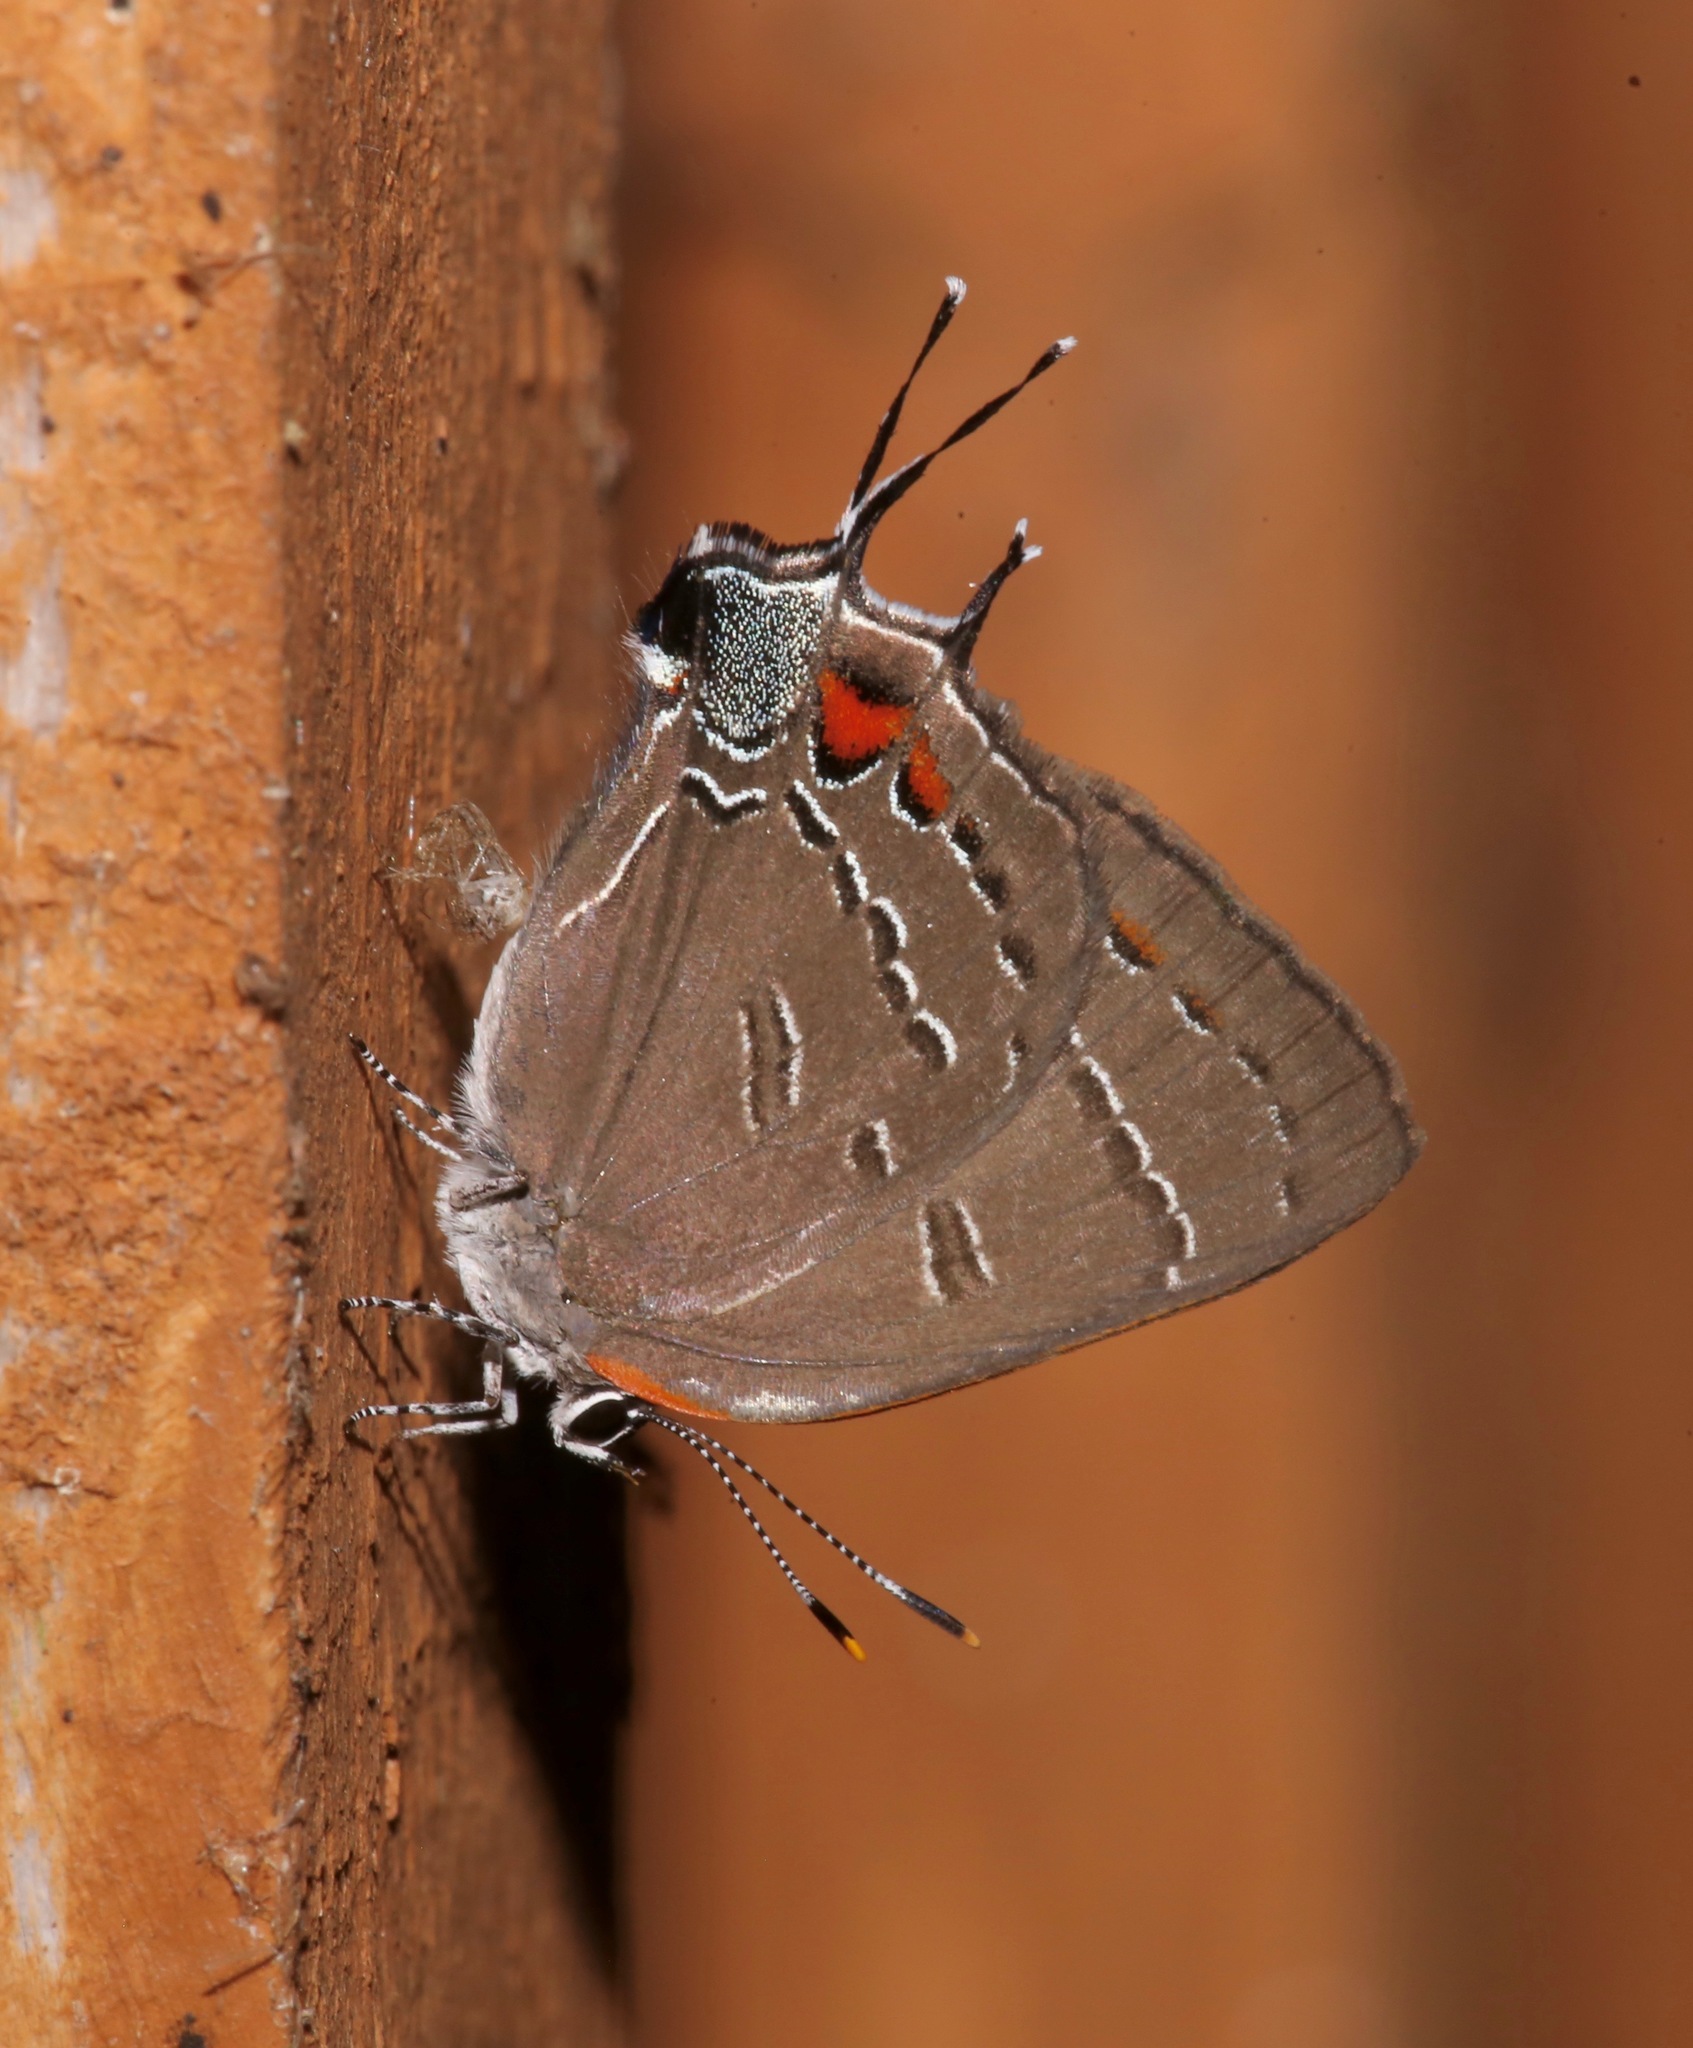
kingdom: Animalia
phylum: Arthropoda
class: Insecta
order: Lepidoptera
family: Lycaenidae
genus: Satyrium
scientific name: Satyrium calanus
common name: Banded hairstreak
